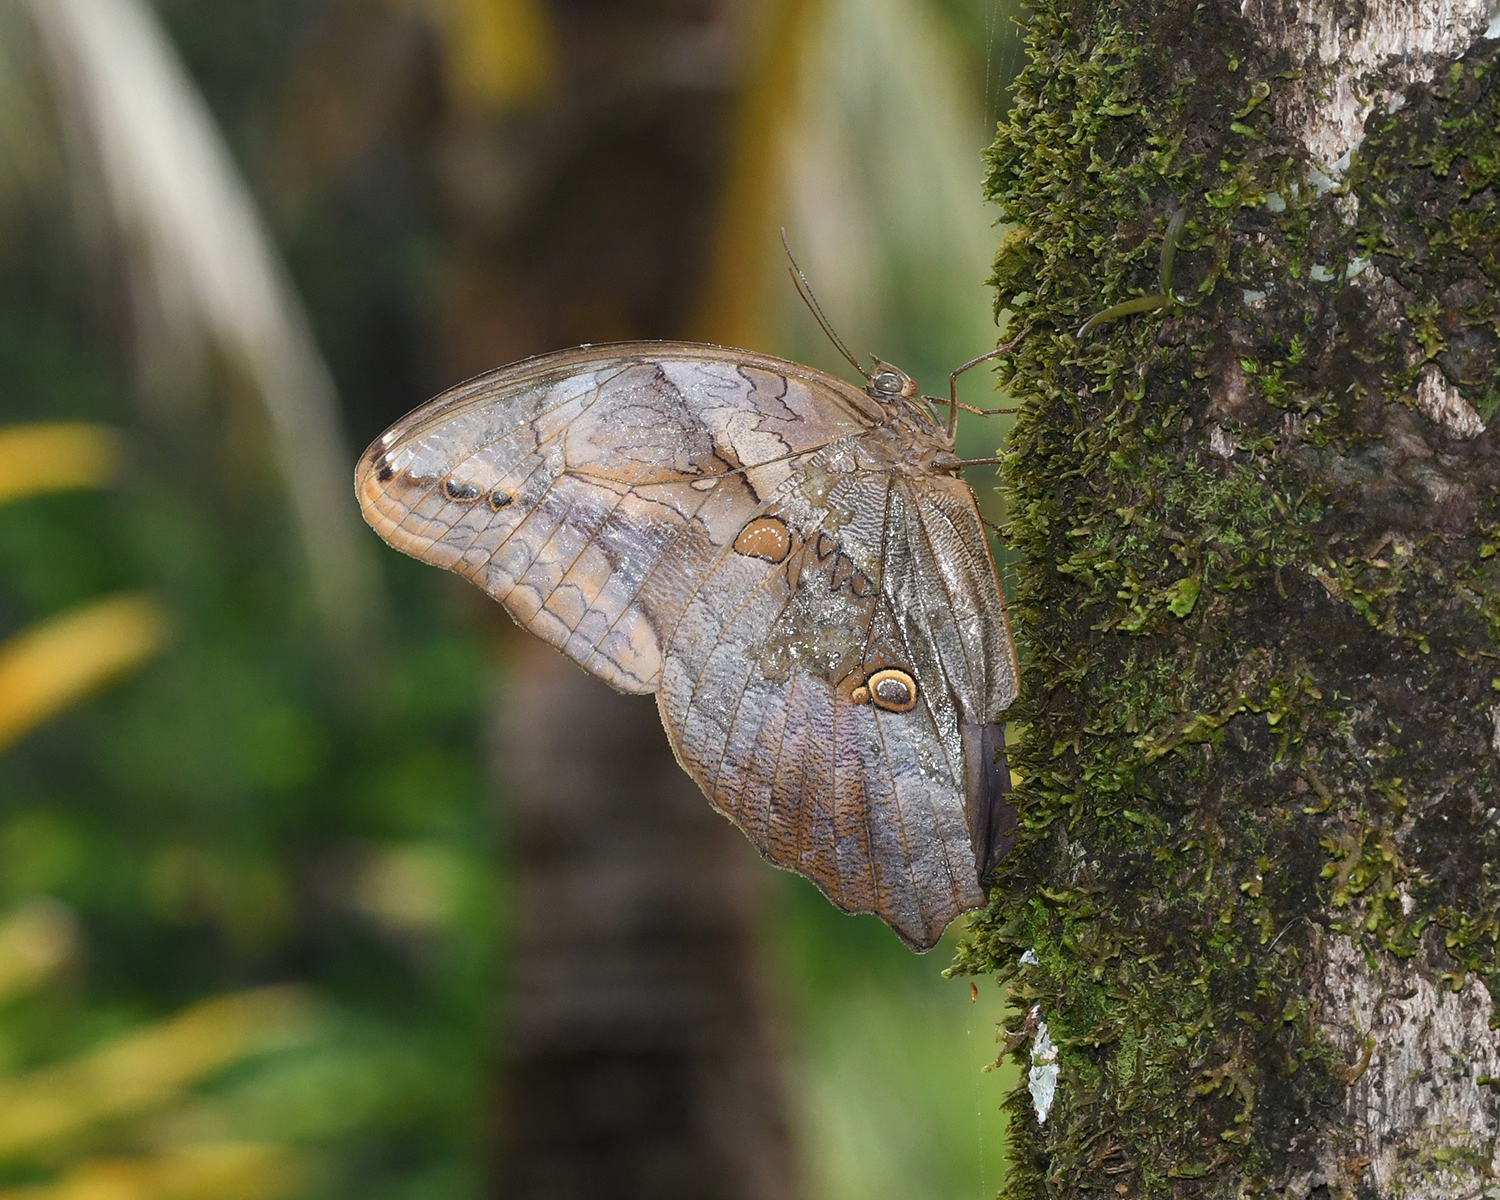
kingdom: Animalia
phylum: Arthropoda
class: Insecta
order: Lepidoptera
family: Nymphalidae
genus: Eryphanis
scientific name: Eryphanis polyxena
